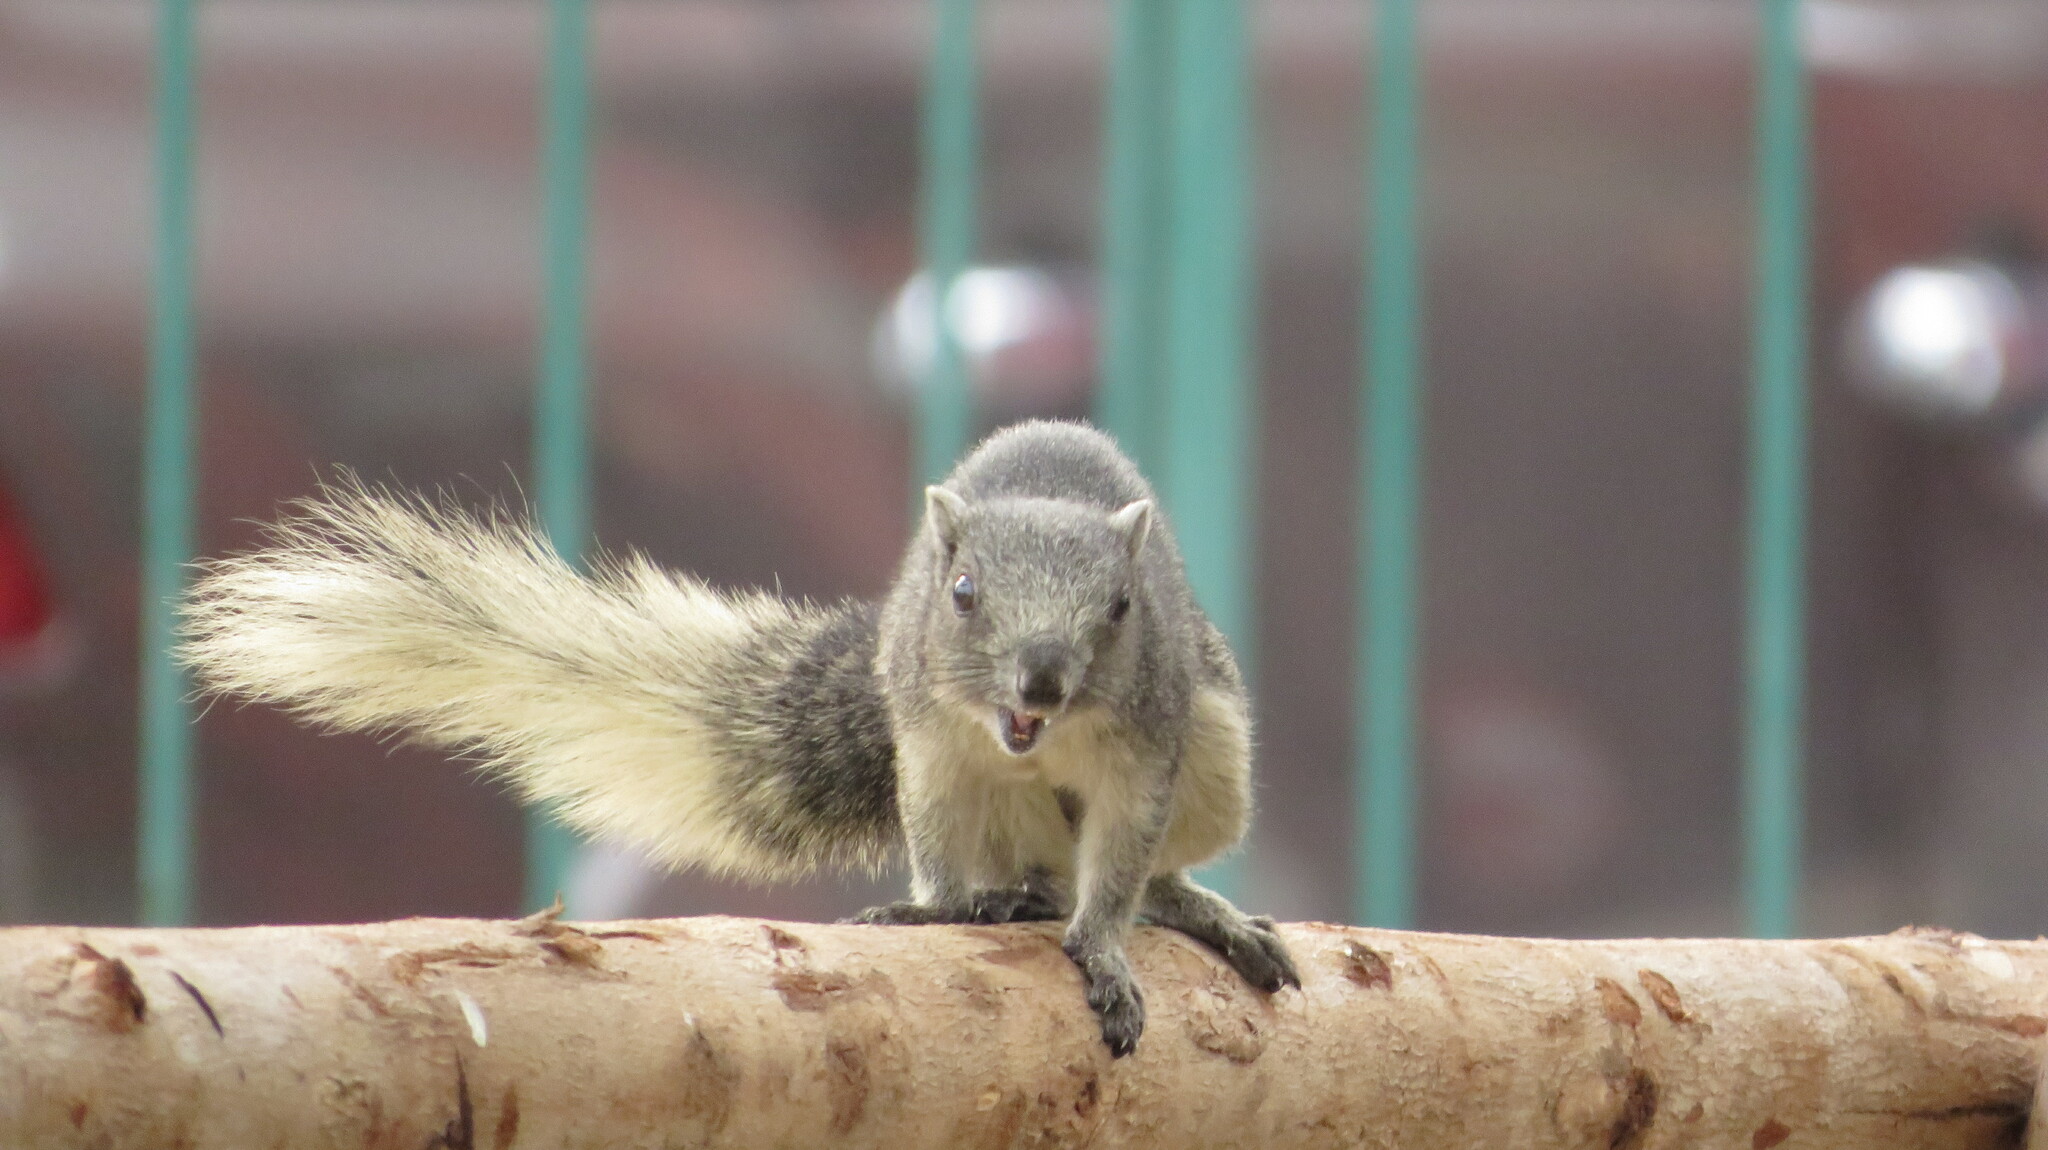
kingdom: Animalia
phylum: Chordata
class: Mammalia
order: Rodentia
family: Sciuridae
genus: Callosciurus
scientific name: Callosciurus finlaysonii
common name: Finlayson's squirrel
